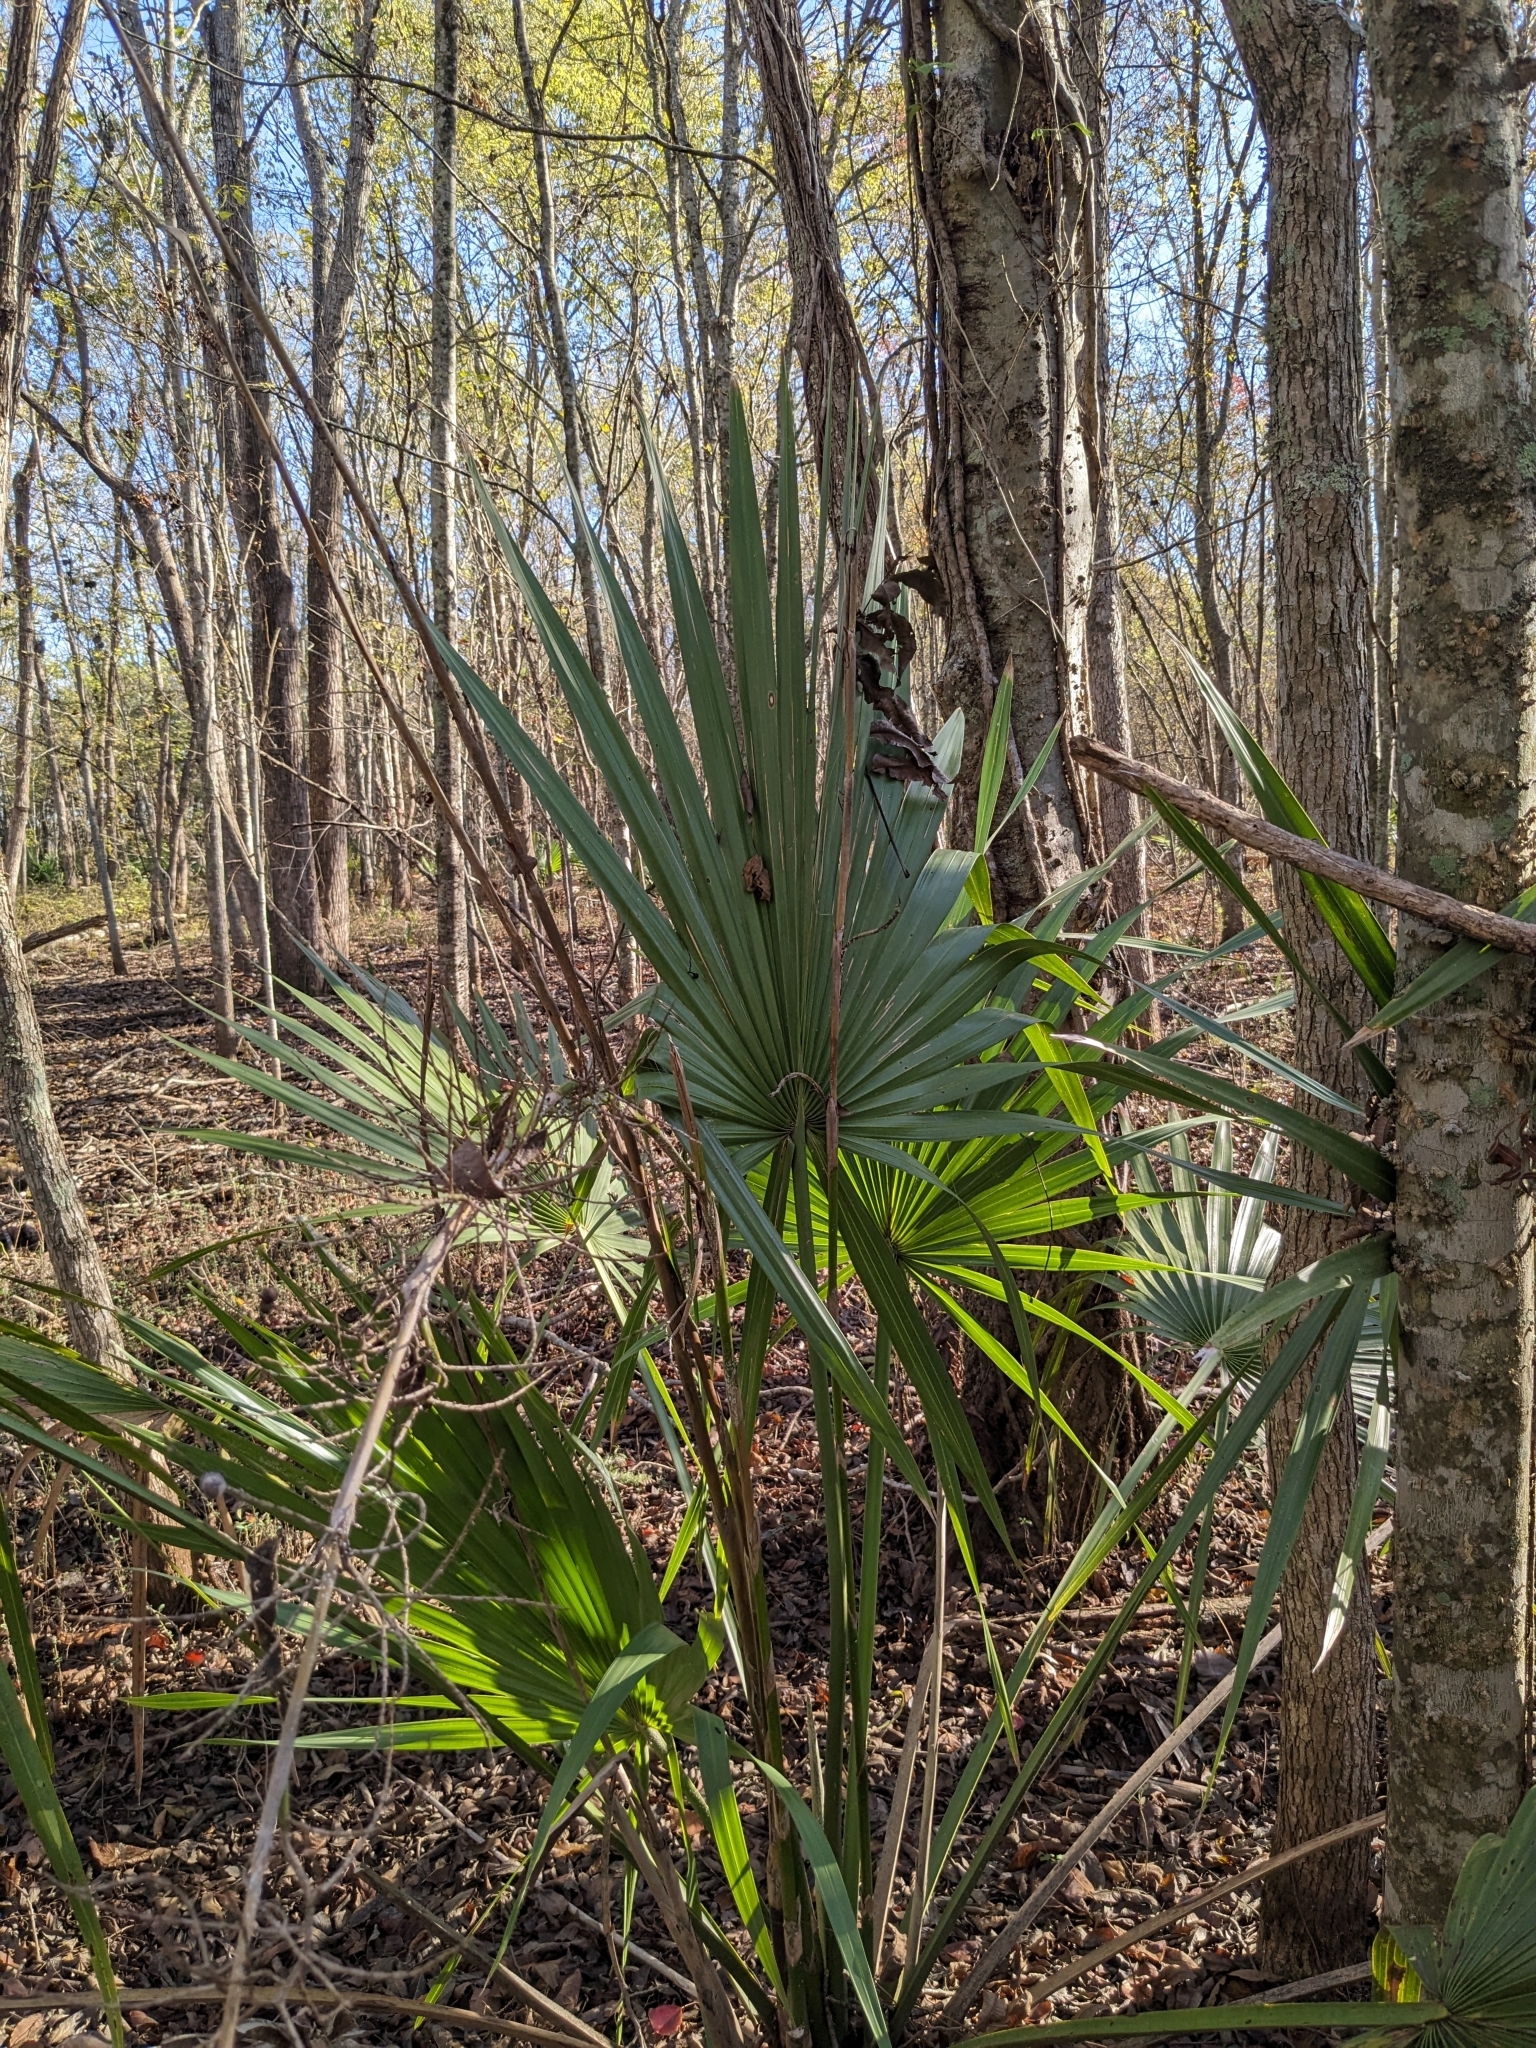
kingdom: Plantae
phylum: Tracheophyta
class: Liliopsida
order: Arecales
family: Arecaceae
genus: Sabal
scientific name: Sabal minor
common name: Dwarf palmetto
